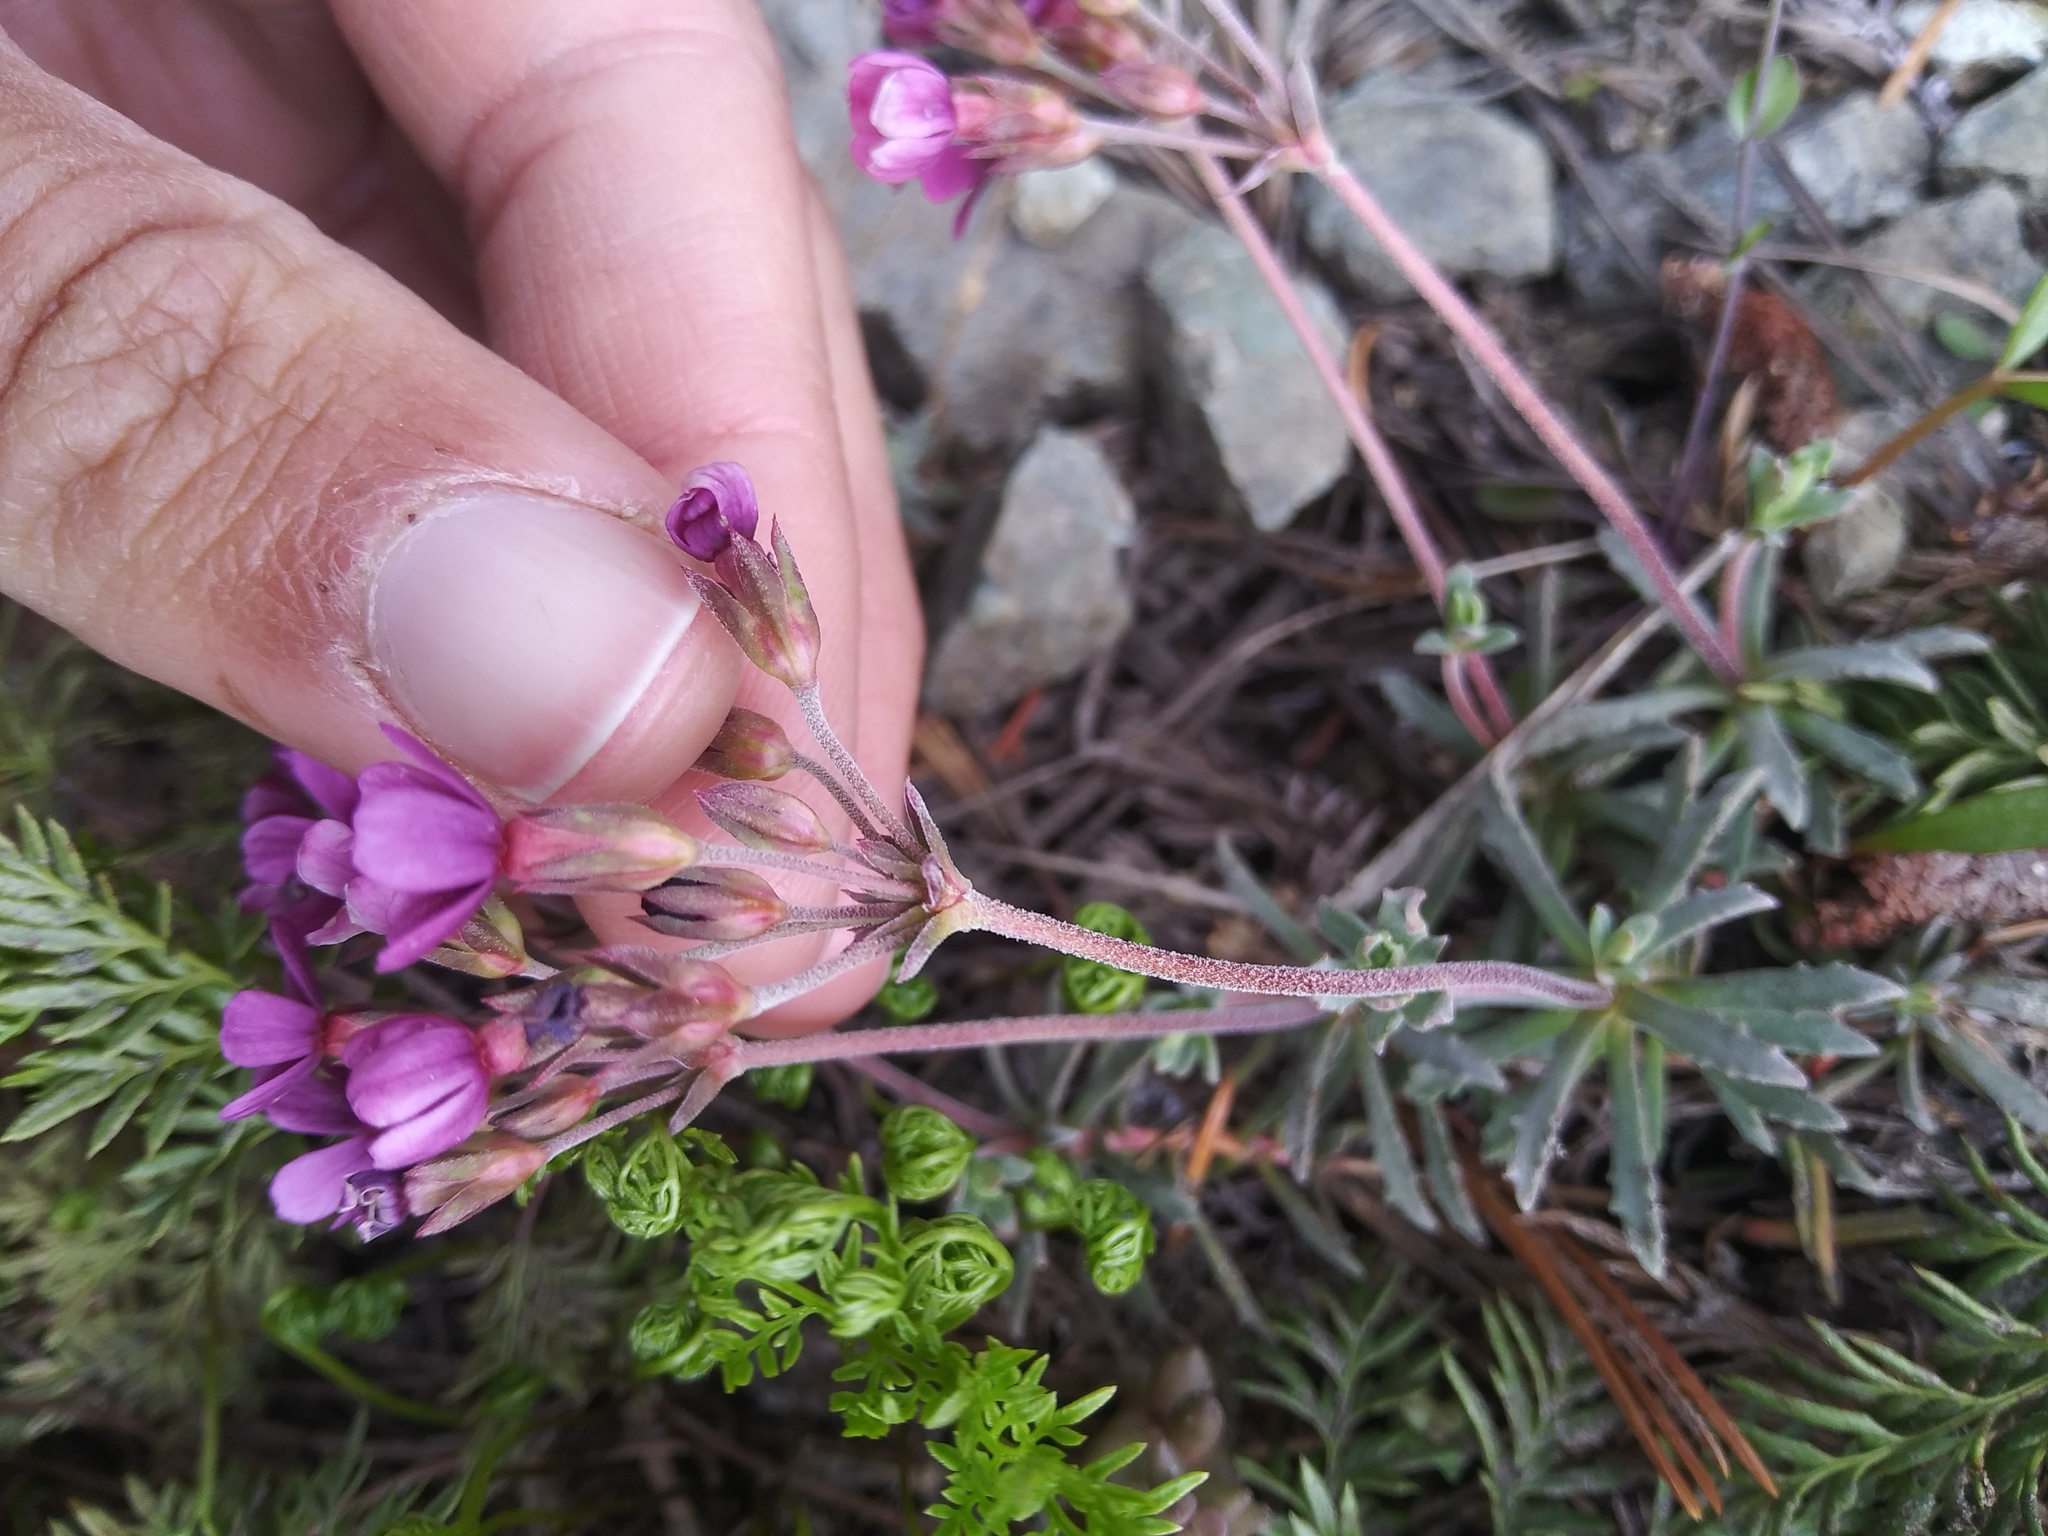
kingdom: Plantae
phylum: Tracheophyta
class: Magnoliopsida
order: Ericales
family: Primulaceae
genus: Androsace
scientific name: Androsace nivalis
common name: Snow dwarf-primrose
